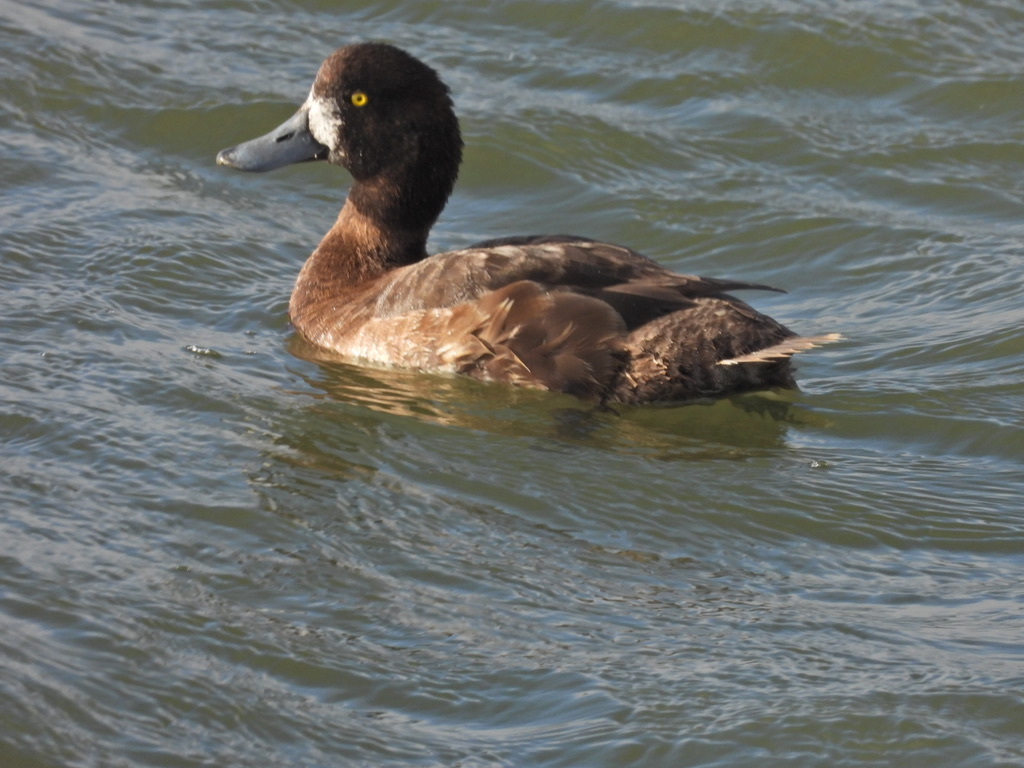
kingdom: Animalia
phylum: Chordata
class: Aves
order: Anseriformes
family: Anatidae
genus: Aythya
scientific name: Aythya marila
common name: Greater scaup
